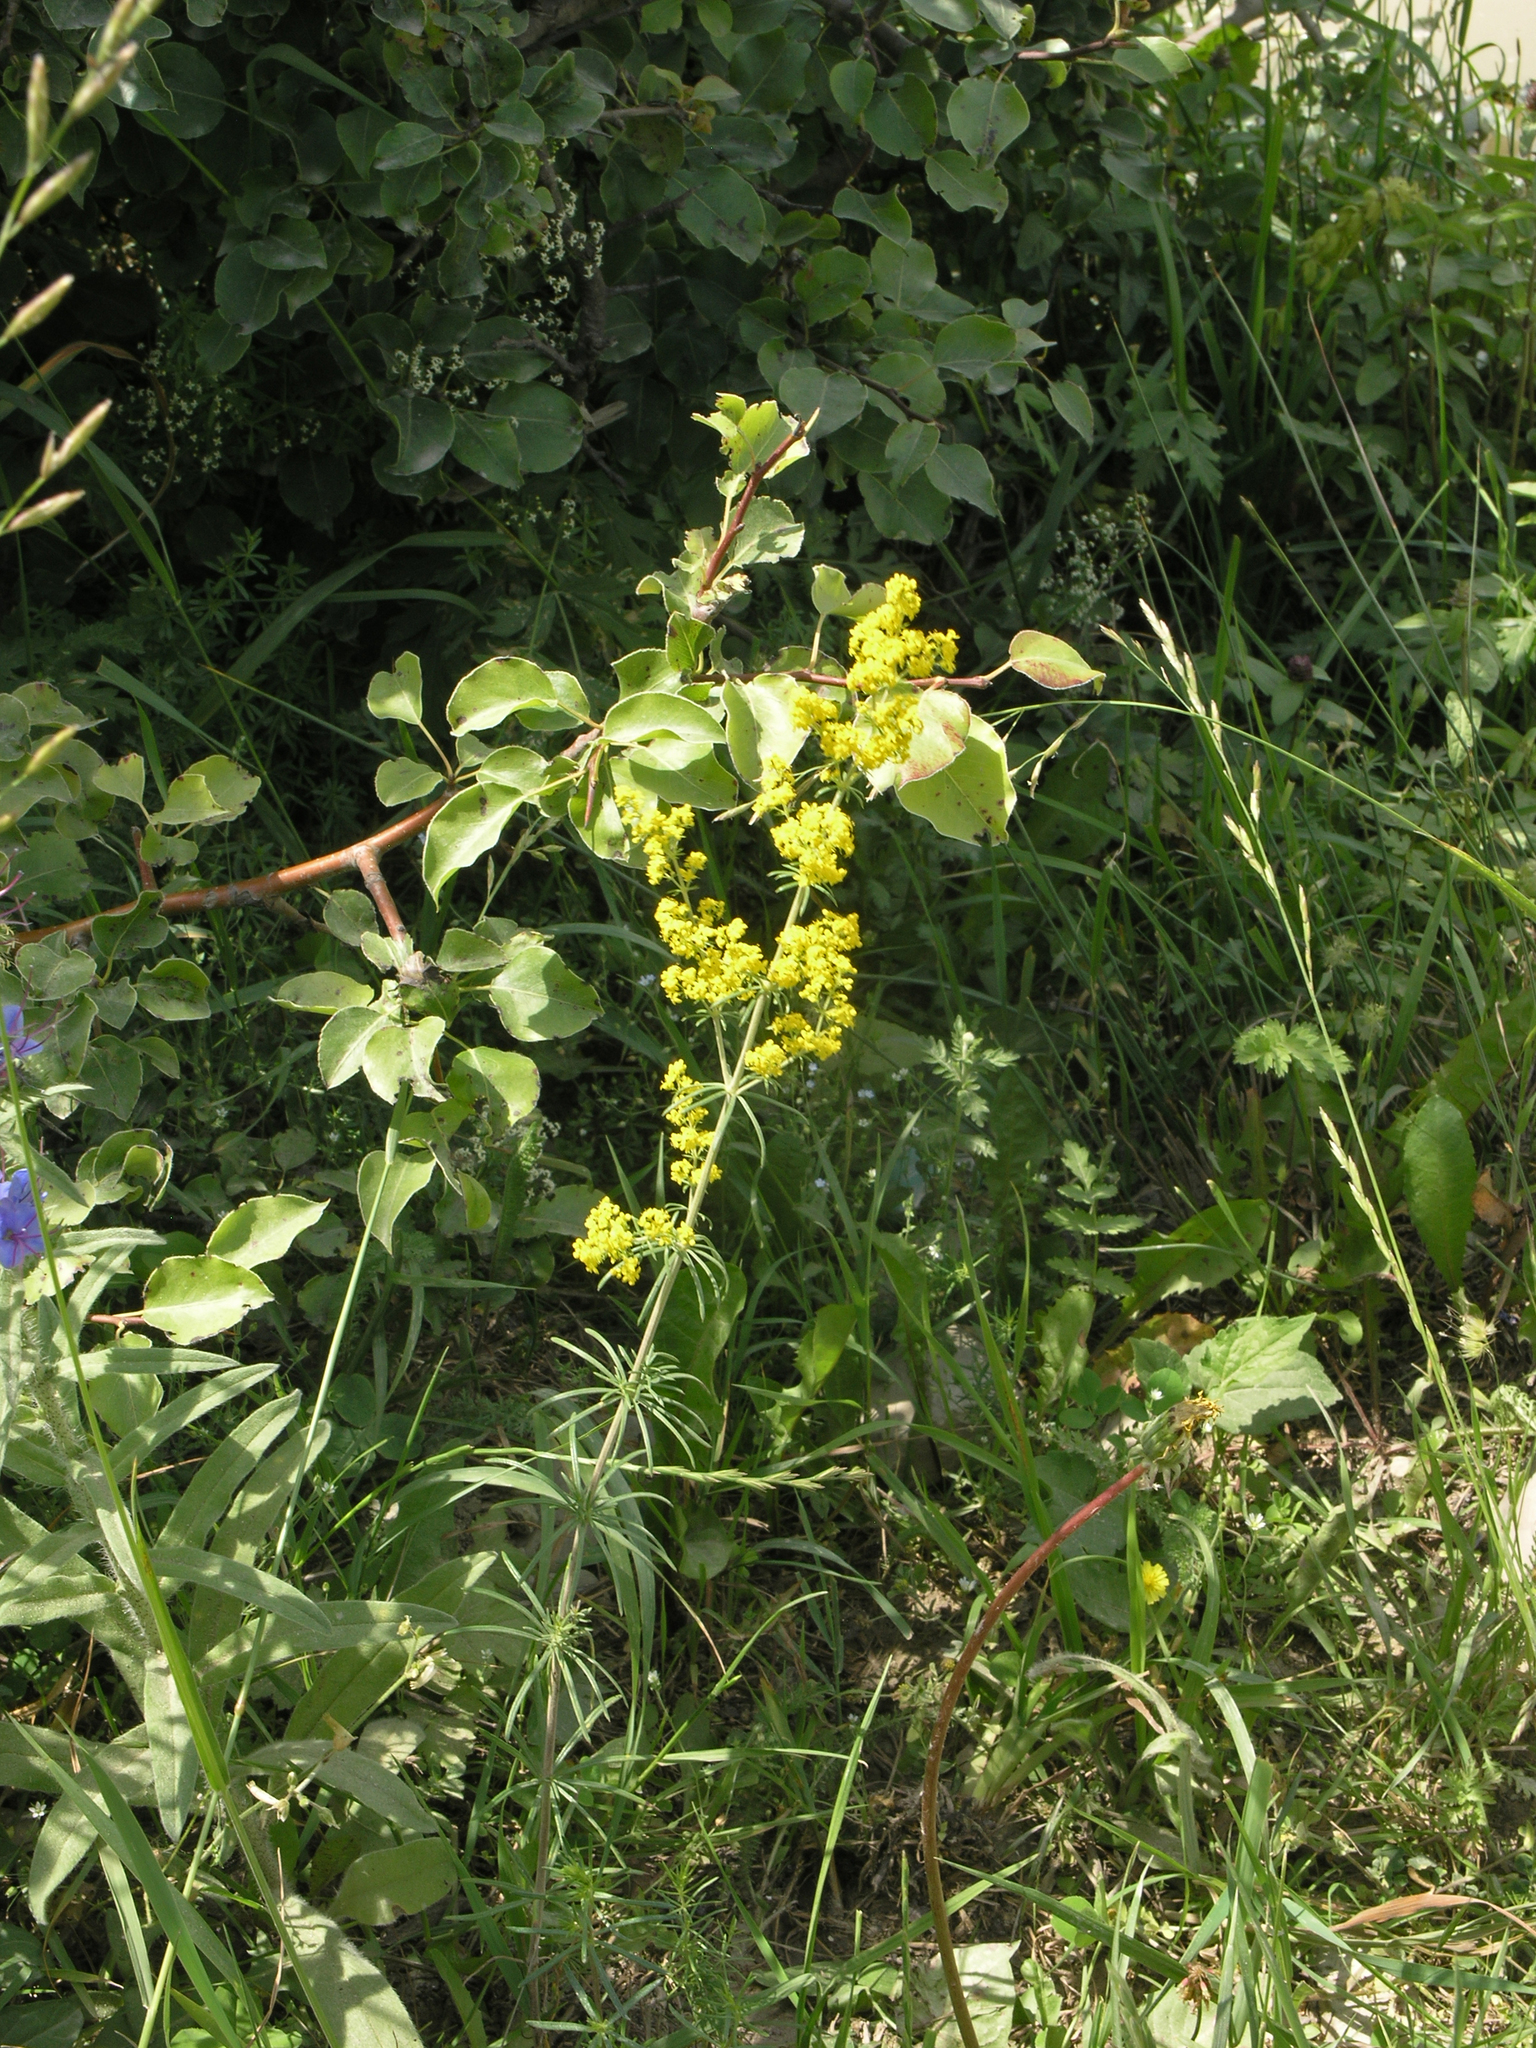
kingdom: Plantae
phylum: Tracheophyta
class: Magnoliopsida
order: Gentianales
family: Rubiaceae
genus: Galium
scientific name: Galium verum
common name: Lady's bedstraw
